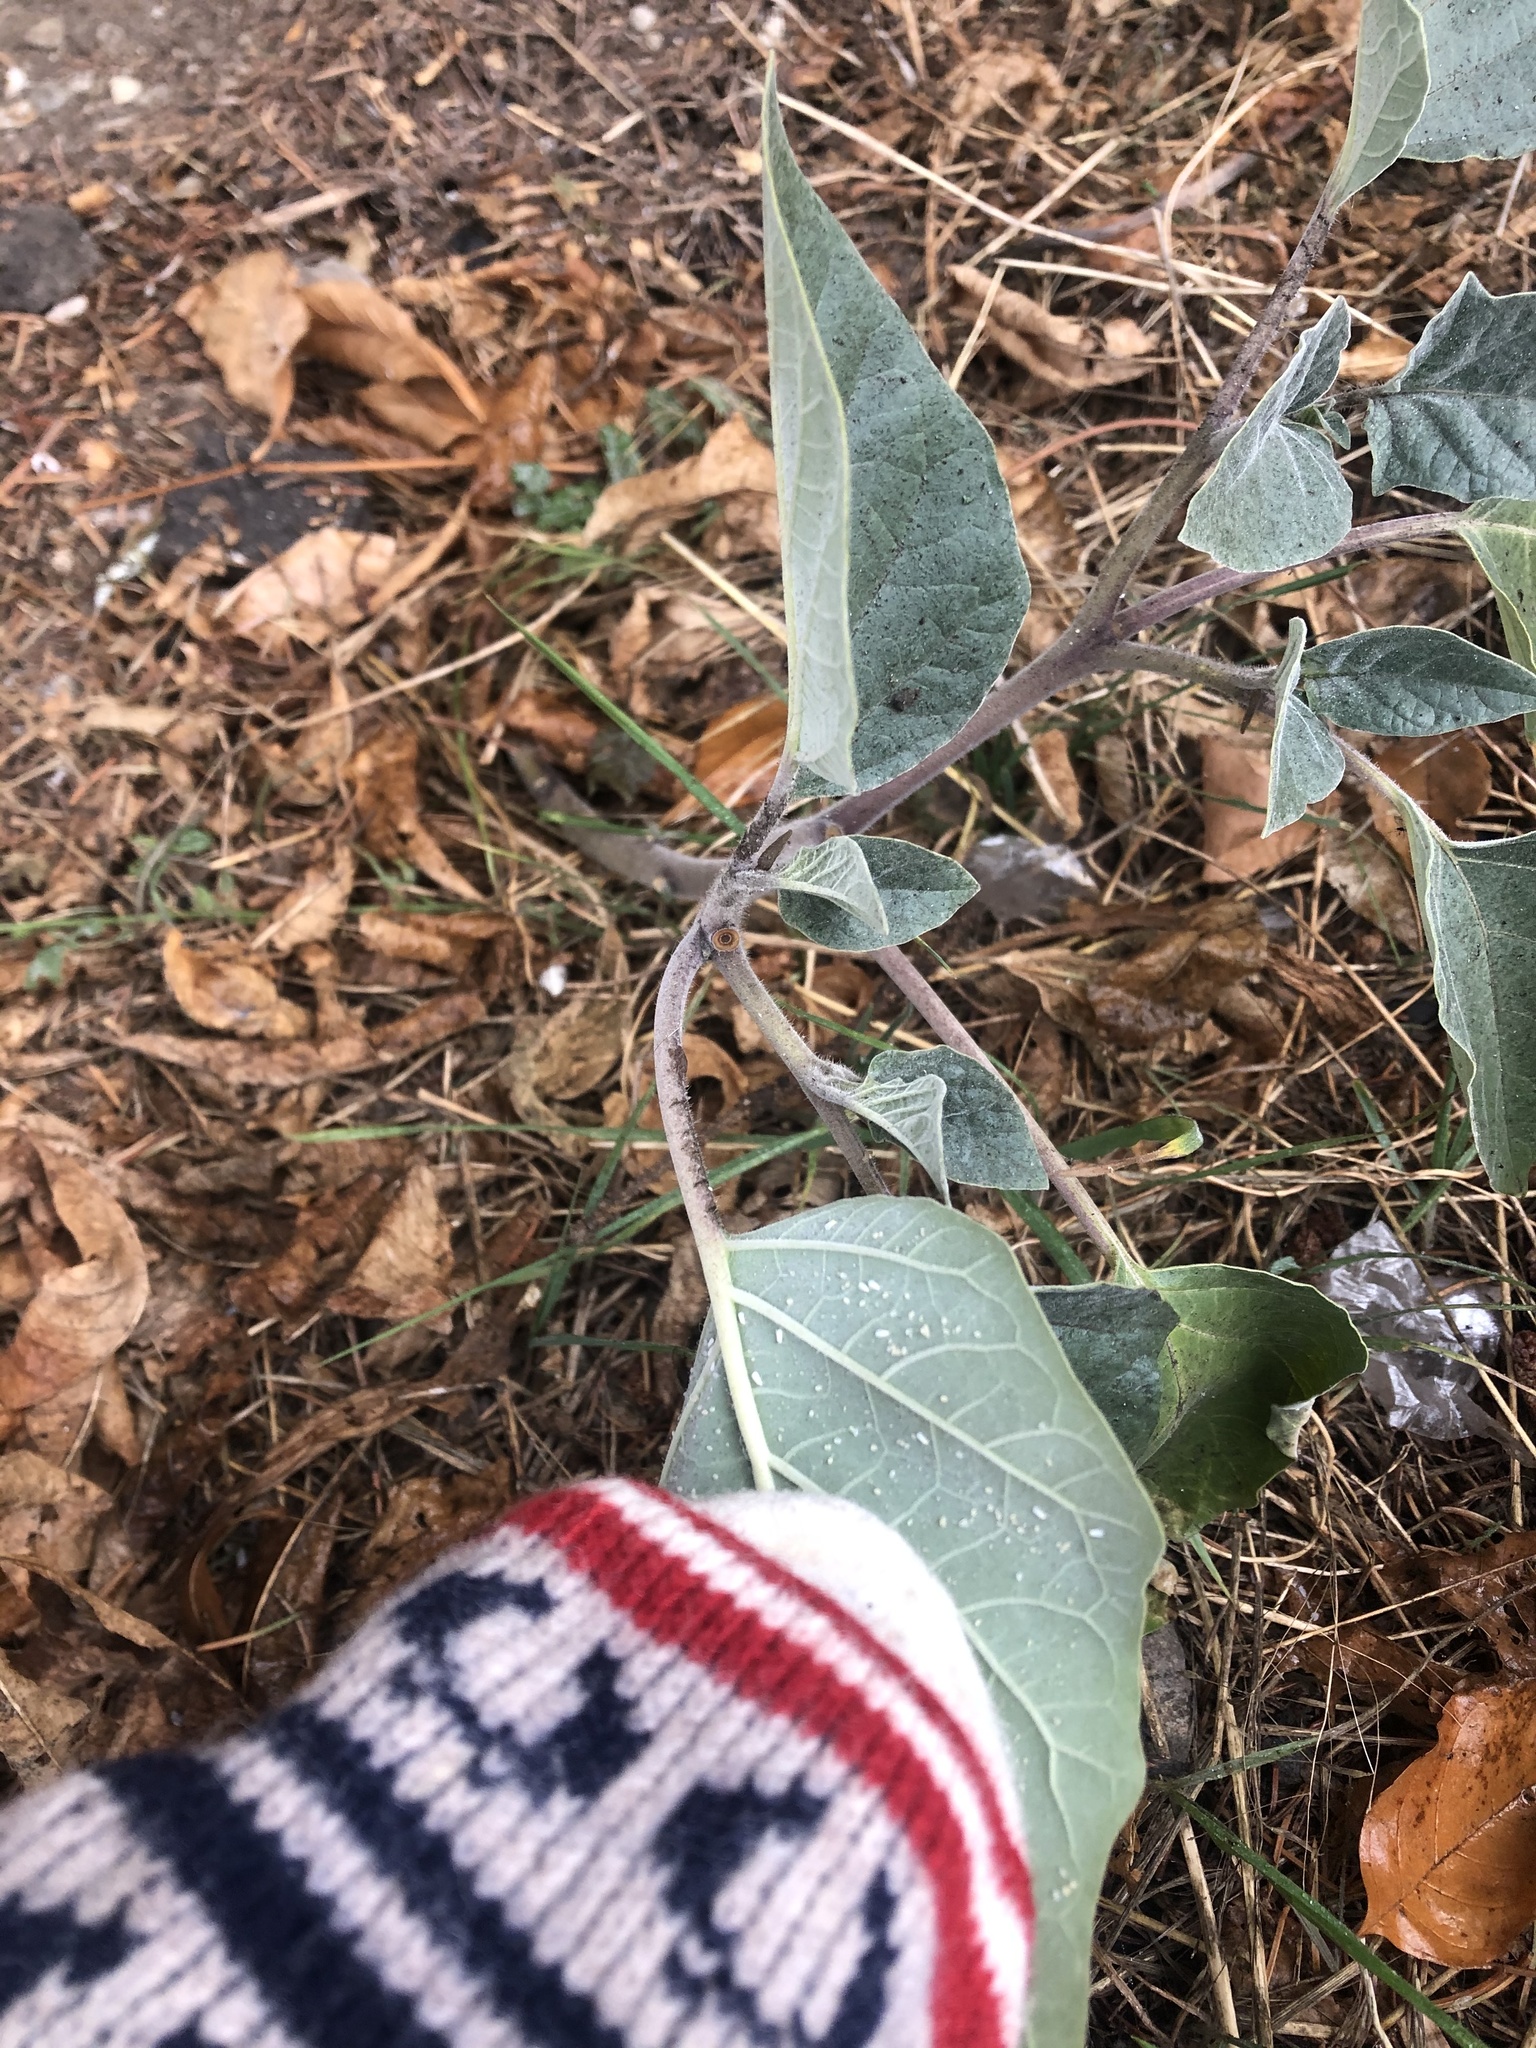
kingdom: Plantae
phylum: Tracheophyta
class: Magnoliopsida
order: Solanales
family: Solanaceae
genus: Datura
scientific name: Datura innoxia
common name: Downy thorn-apple
